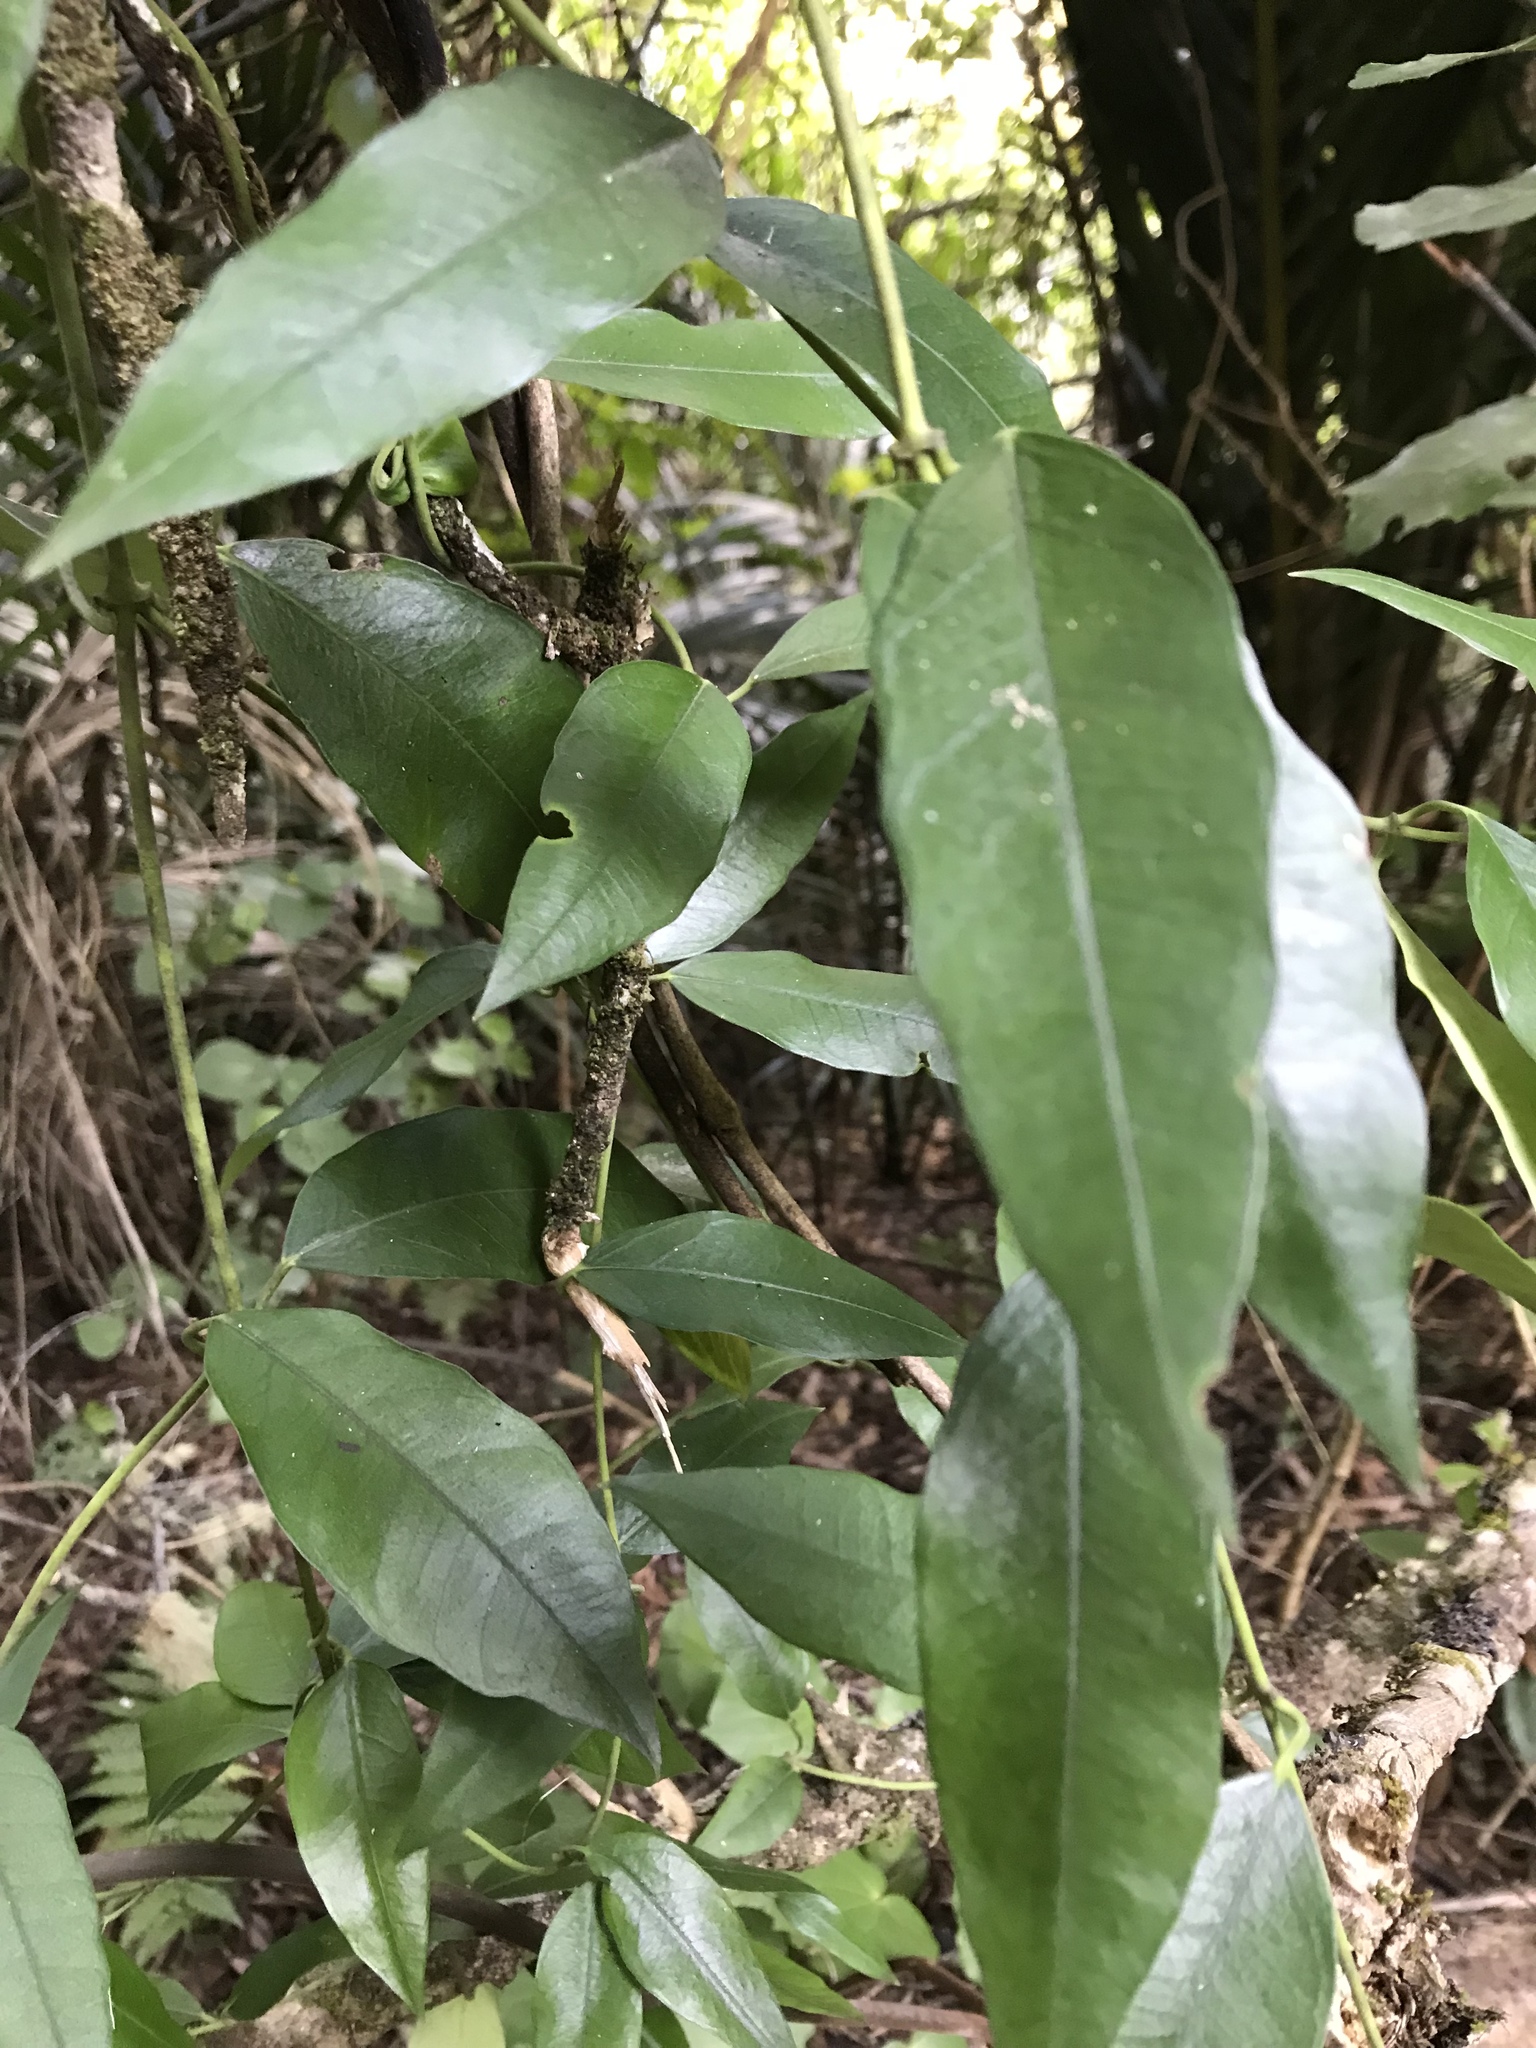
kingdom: Plantae
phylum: Tracheophyta
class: Magnoliopsida
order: Malpighiales
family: Passifloraceae
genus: Passiflora
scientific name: Passiflora tetrandra
